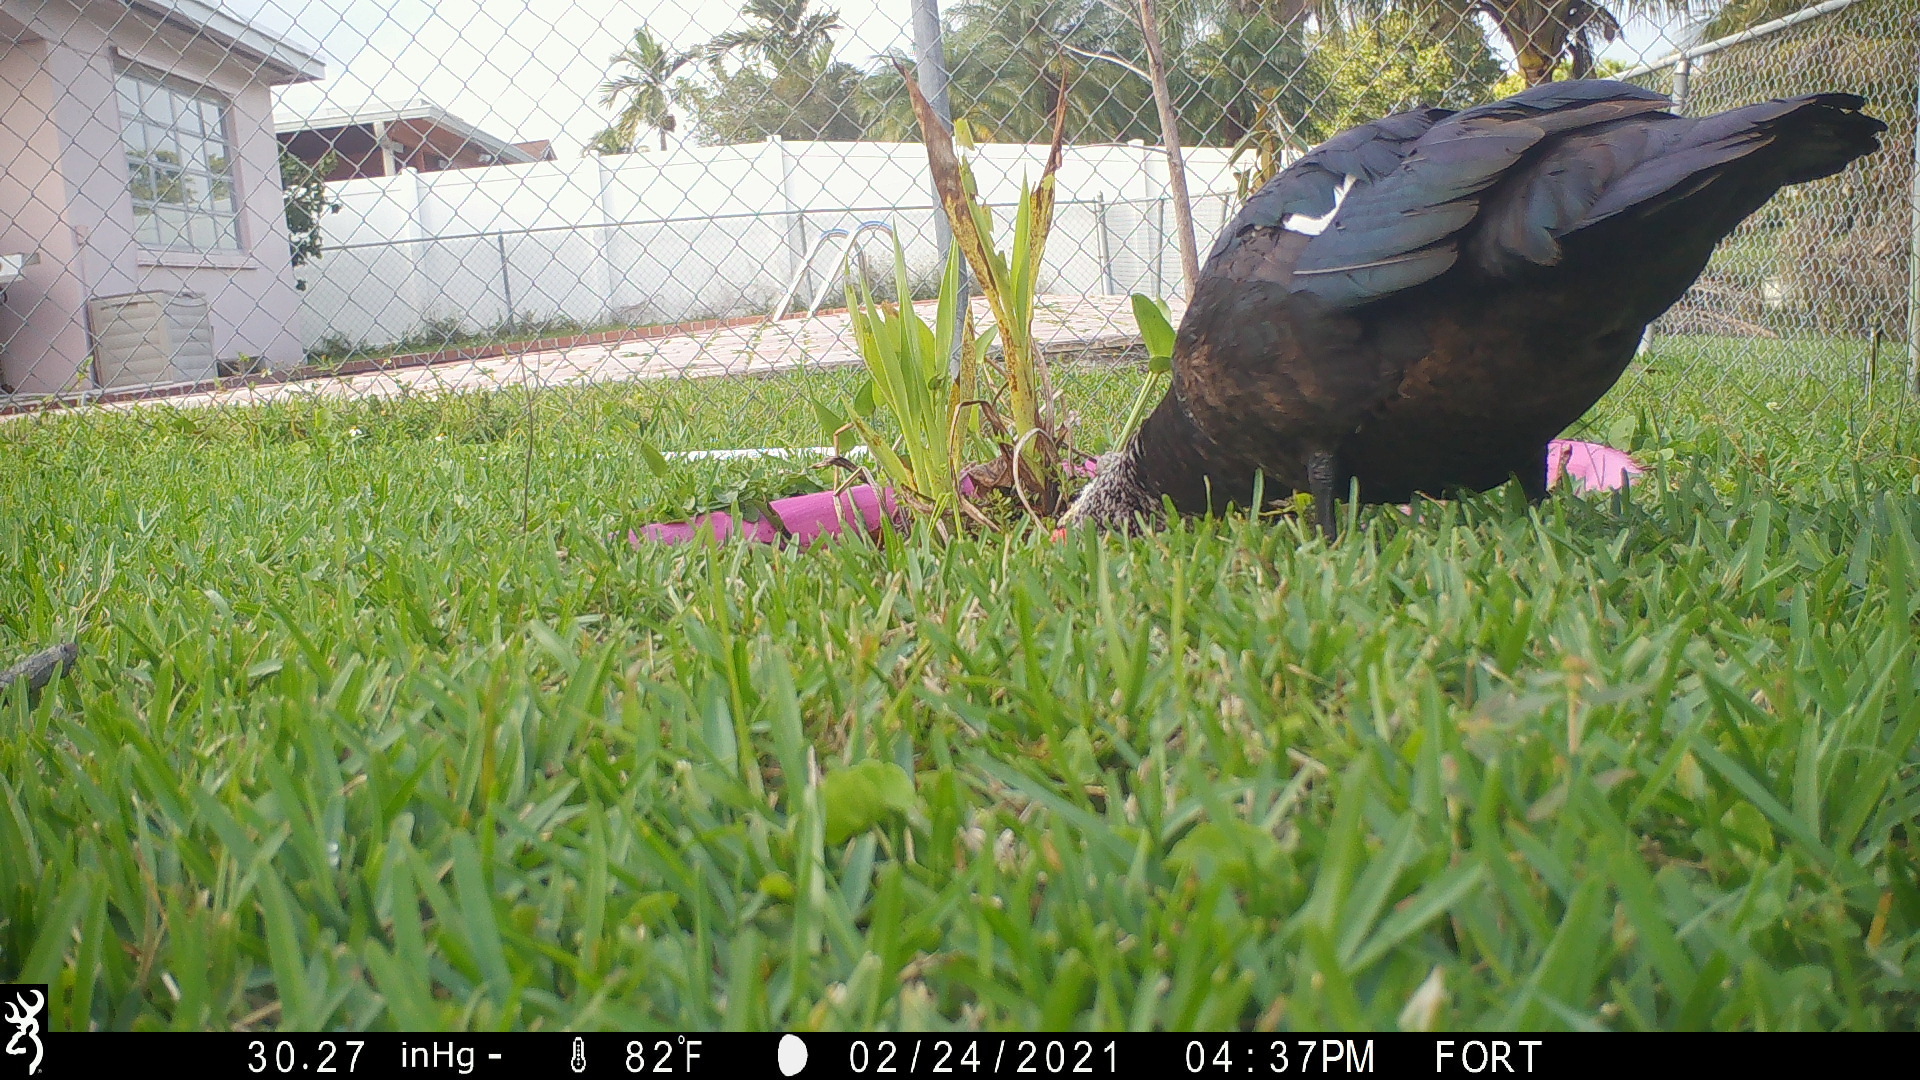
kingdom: Animalia
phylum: Chordata
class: Aves
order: Anseriformes
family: Anatidae
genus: Cairina
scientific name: Cairina moschata
